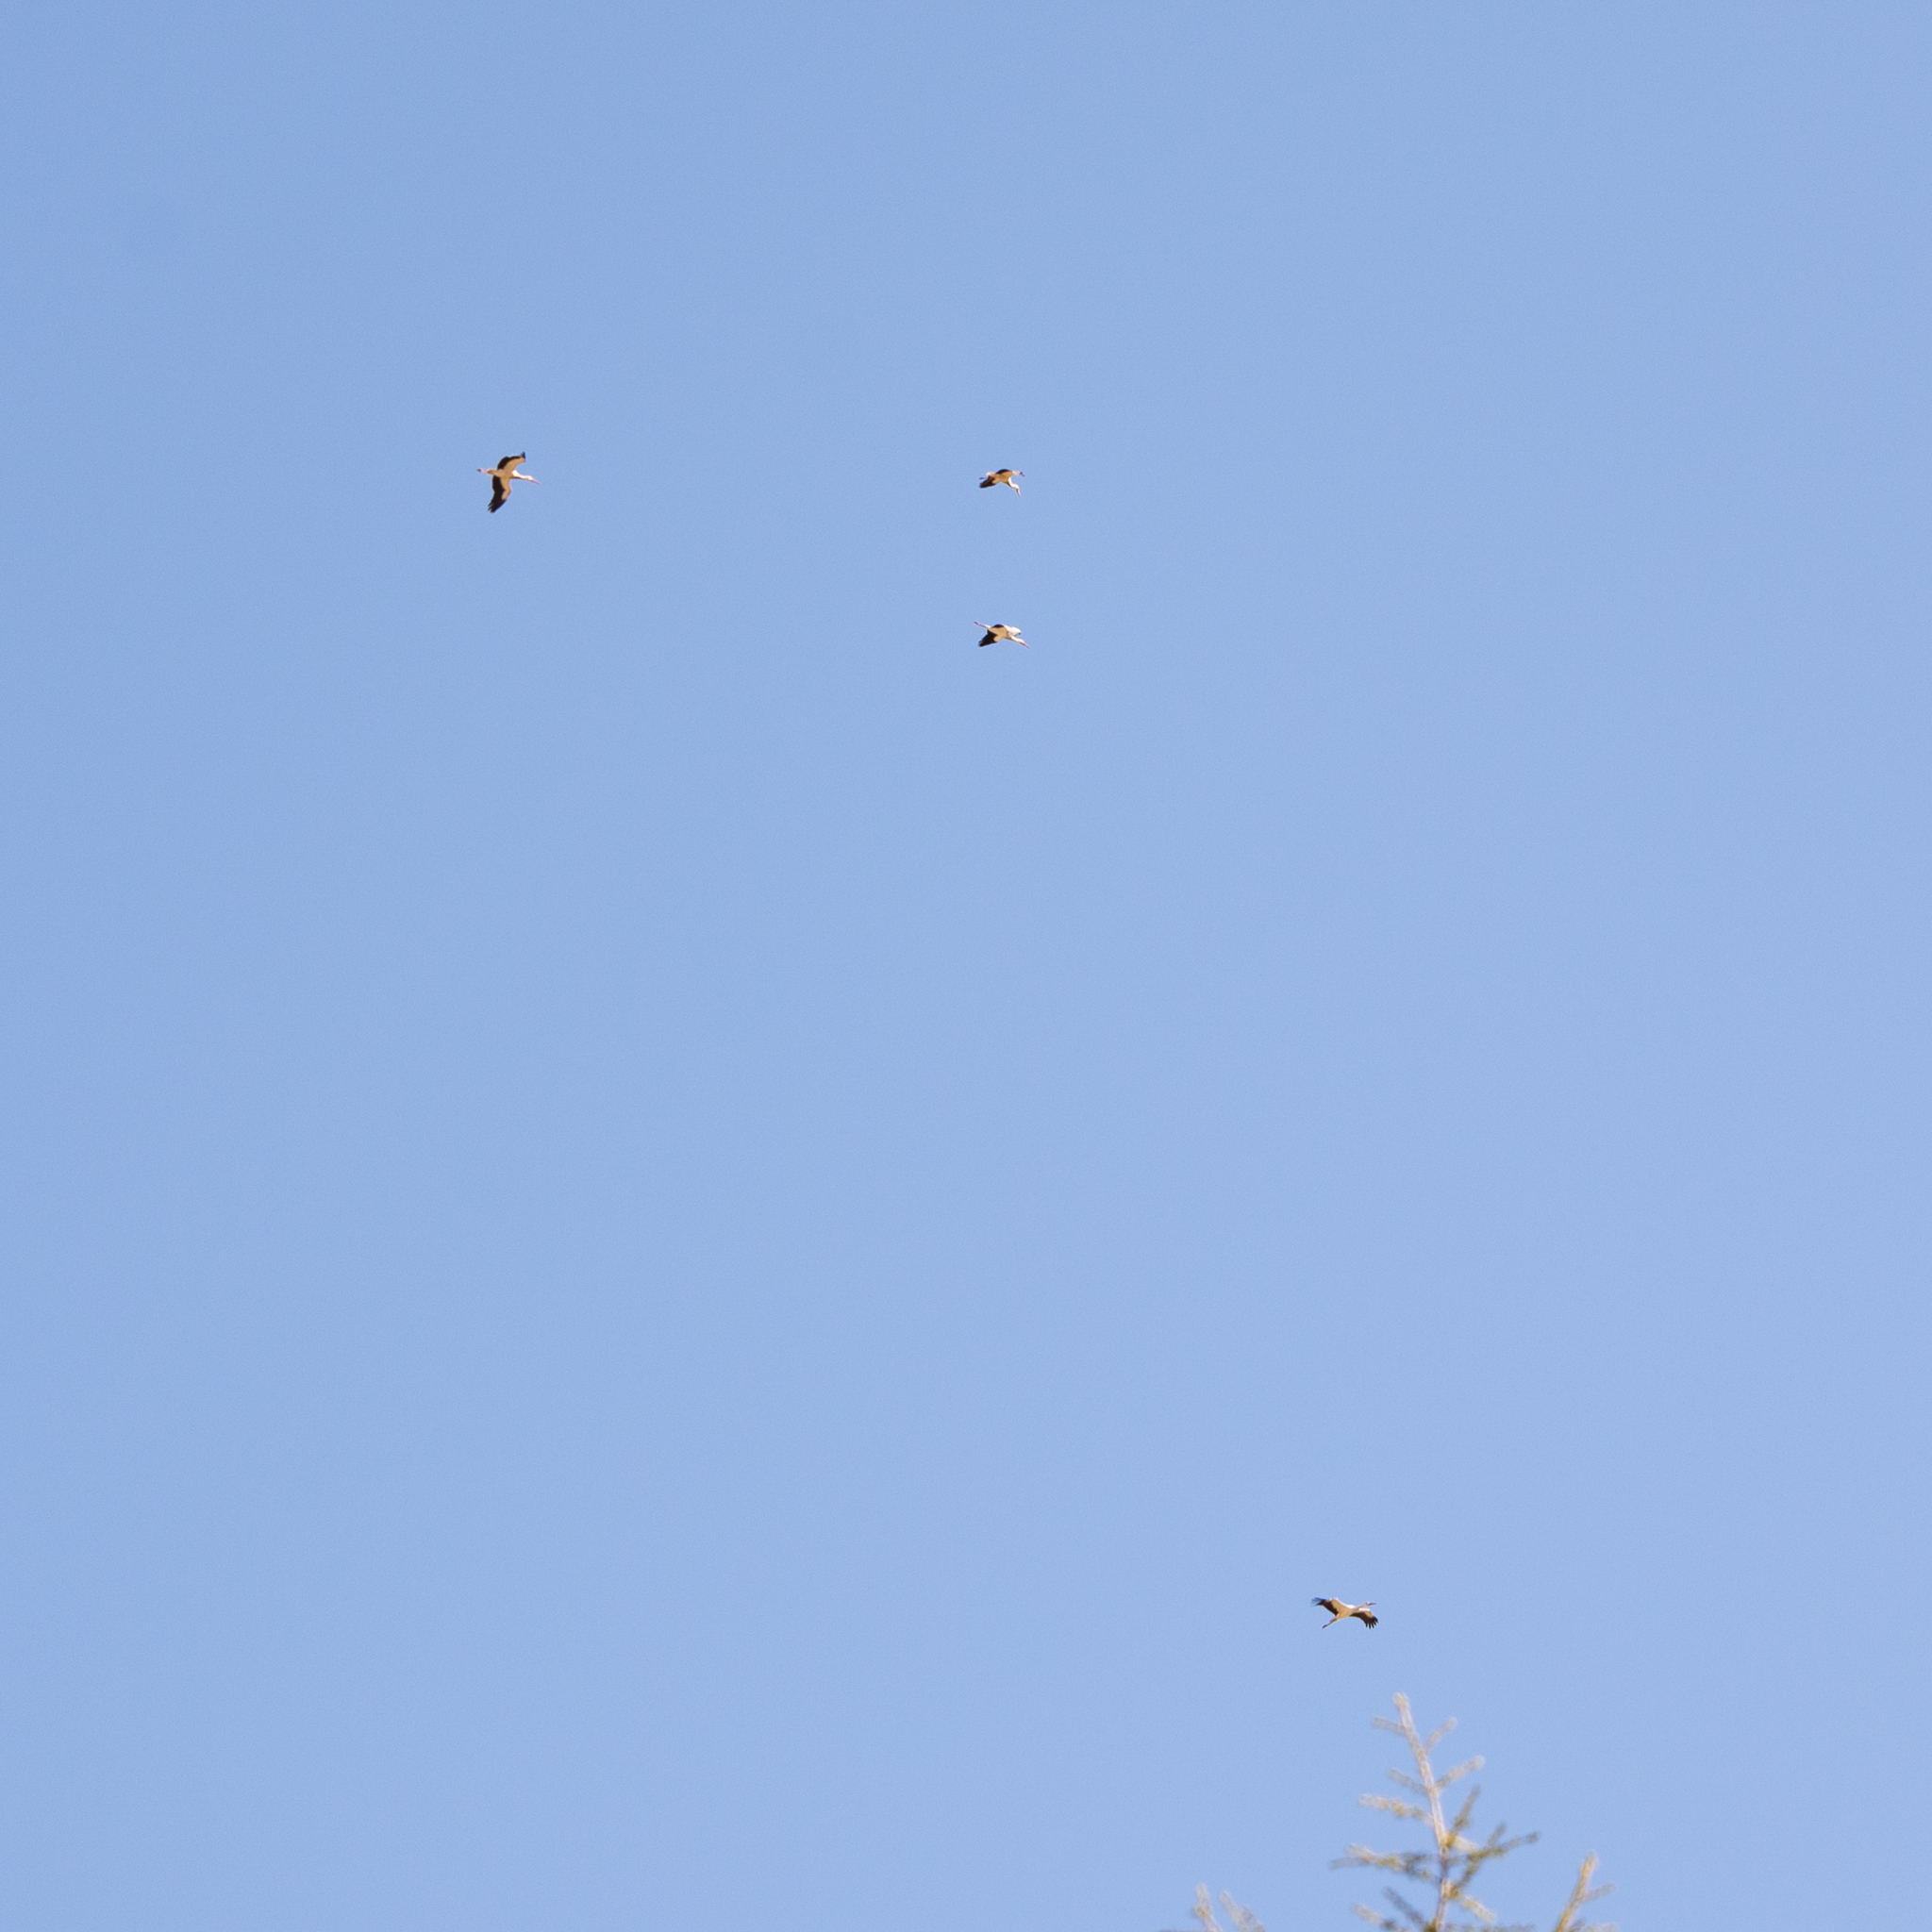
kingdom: Animalia
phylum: Chordata
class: Aves
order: Ciconiiformes
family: Ciconiidae
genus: Ciconia
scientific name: Ciconia ciconia
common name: White stork
